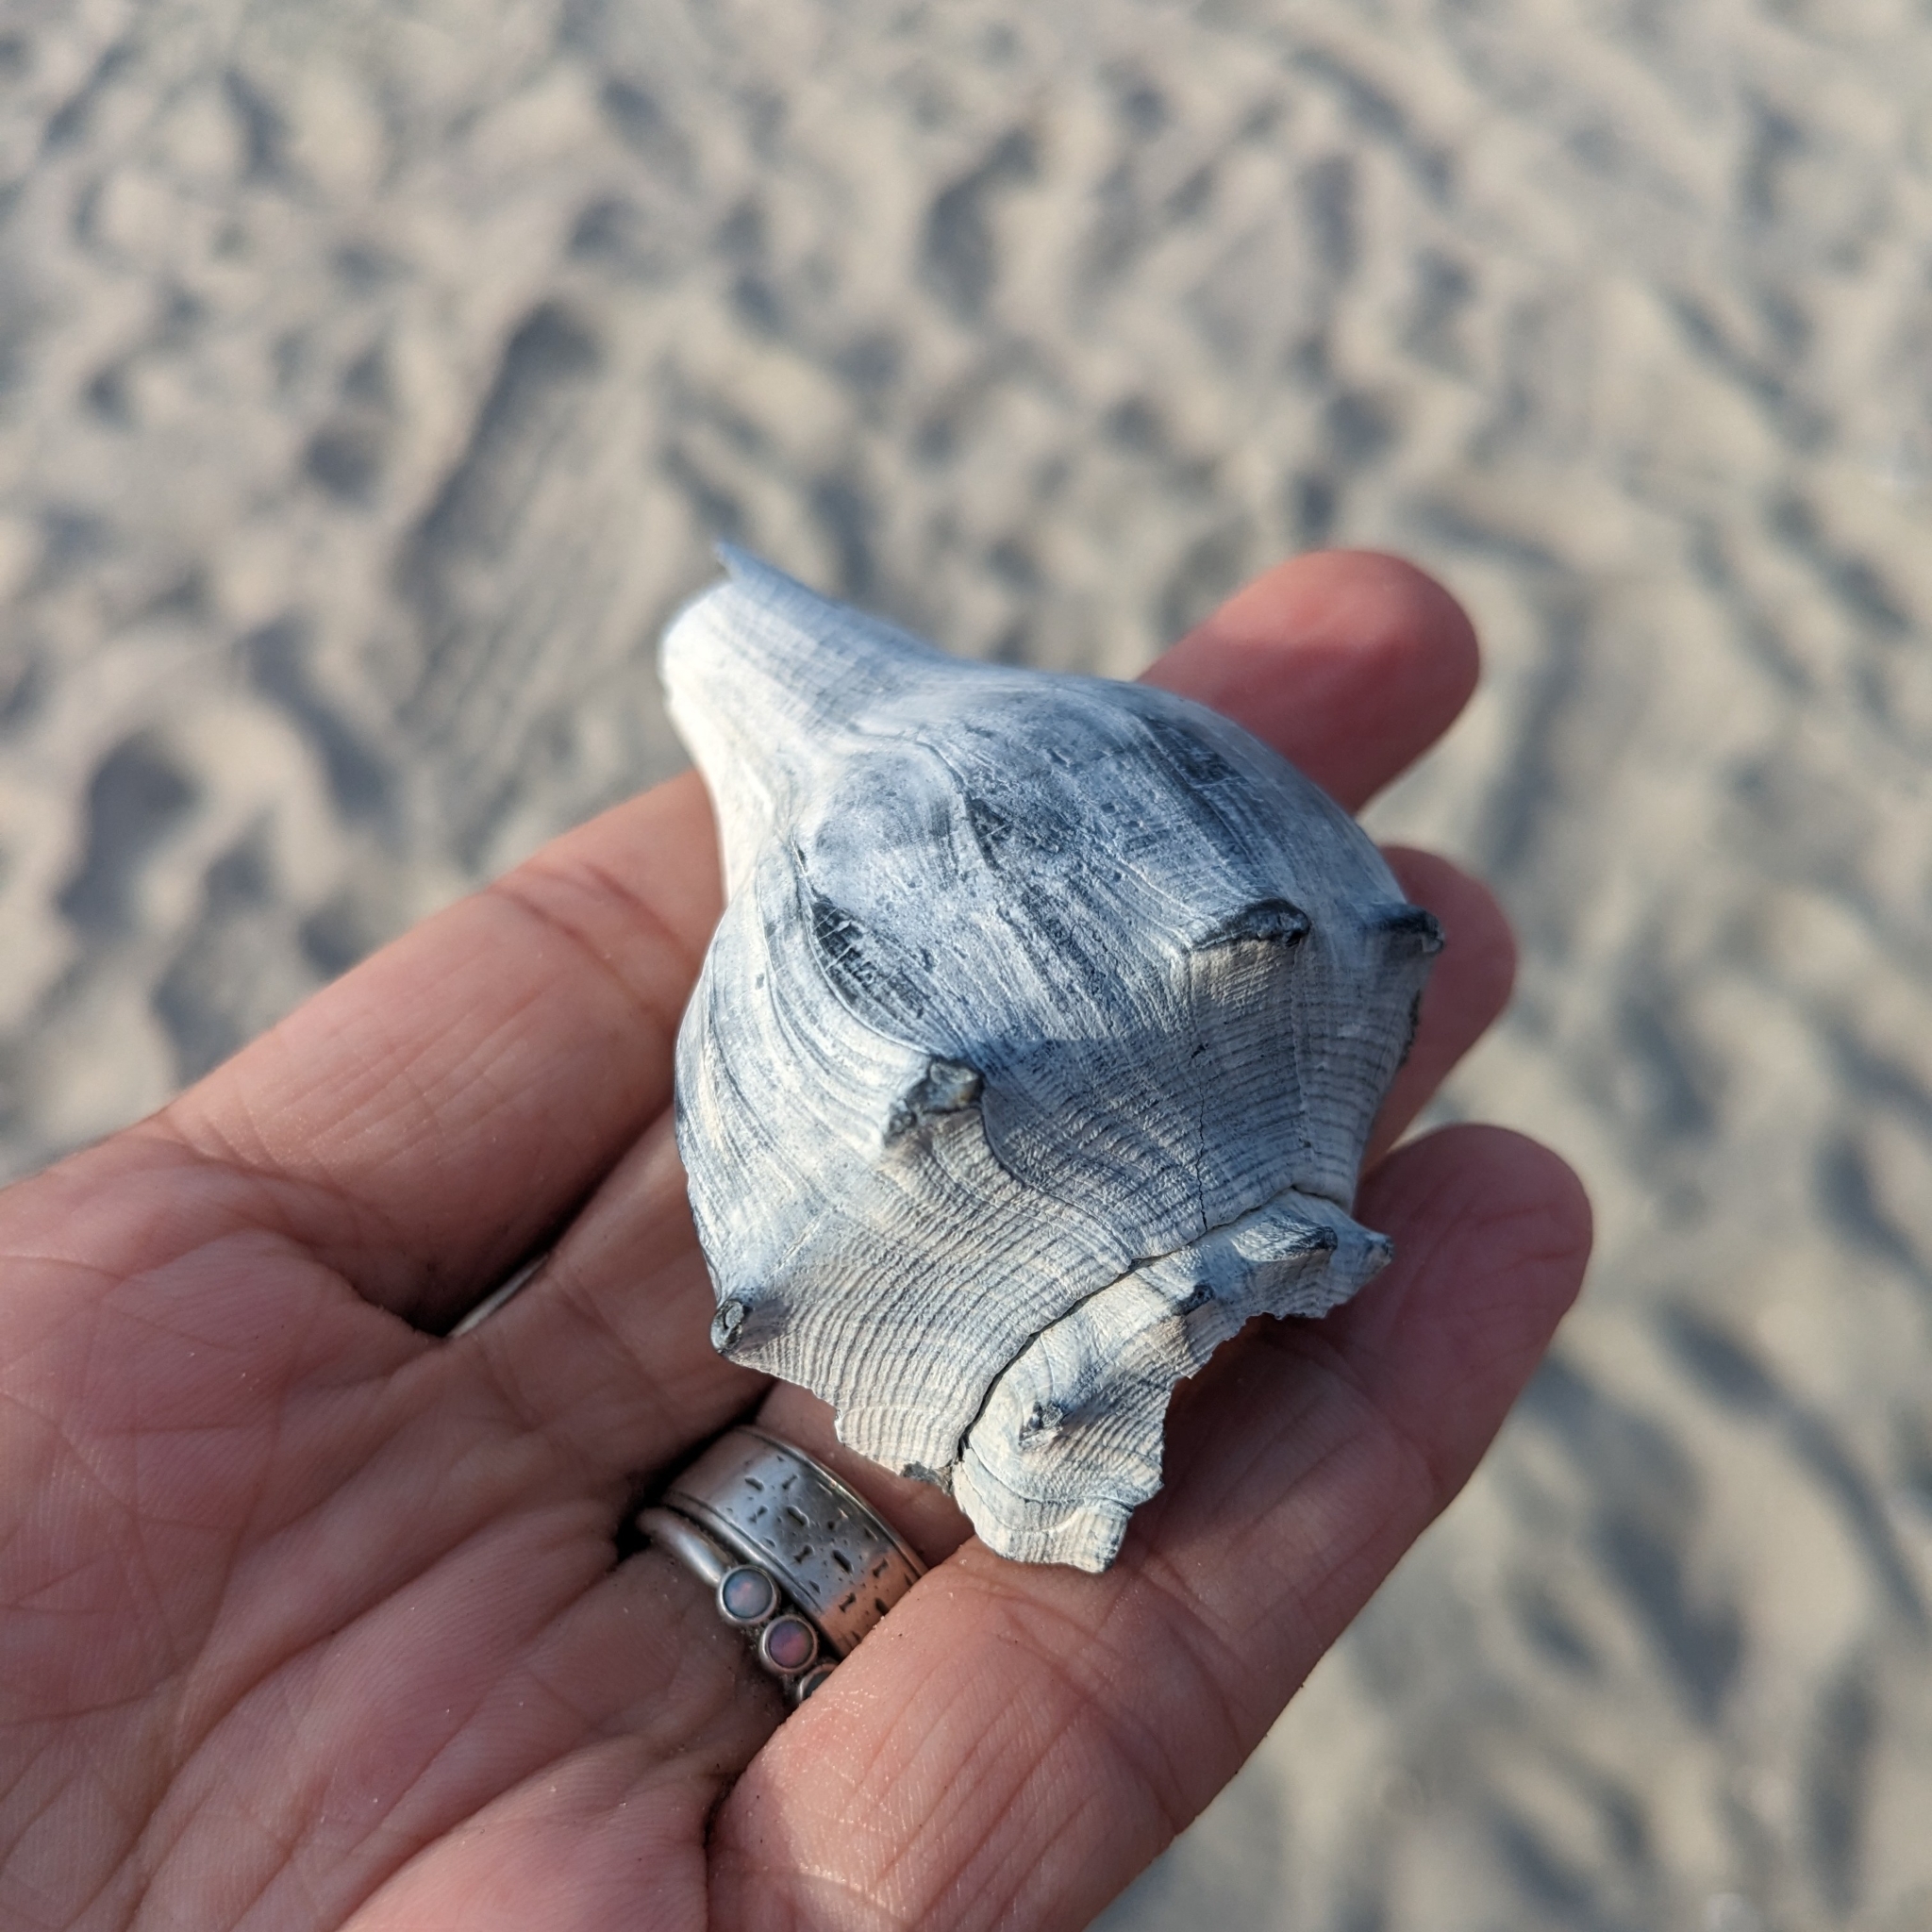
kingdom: Animalia
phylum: Mollusca
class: Gastropoda
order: Neogastropoda
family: Busyconidae
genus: Busycon
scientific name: Busycon carica
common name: Knobbed whelk
